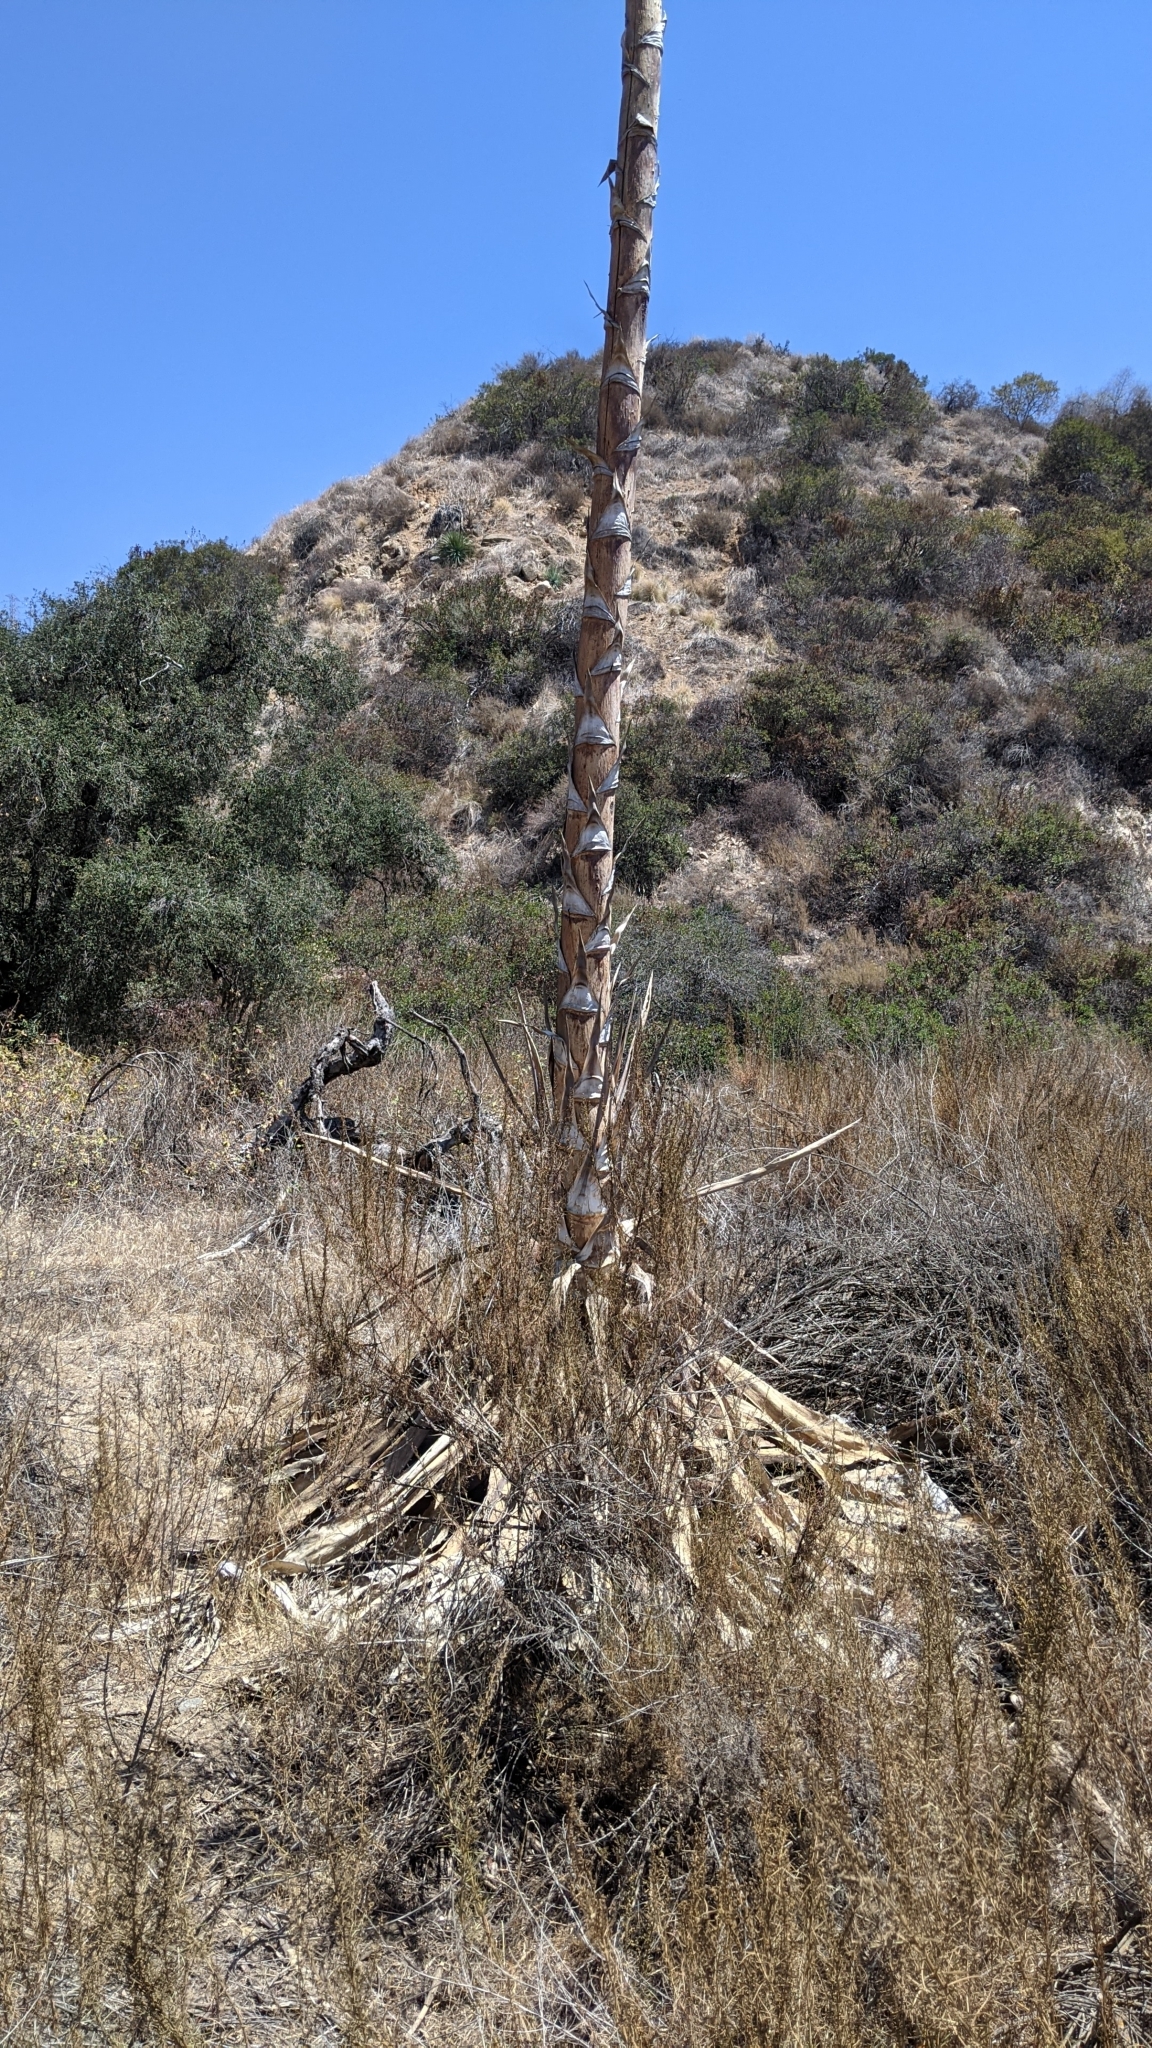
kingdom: Plantae
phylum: Tracheophyta
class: Liliopsida
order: Asparagales
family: Asparagaceae
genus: Agave
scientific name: Agave americana
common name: Centuryplant
